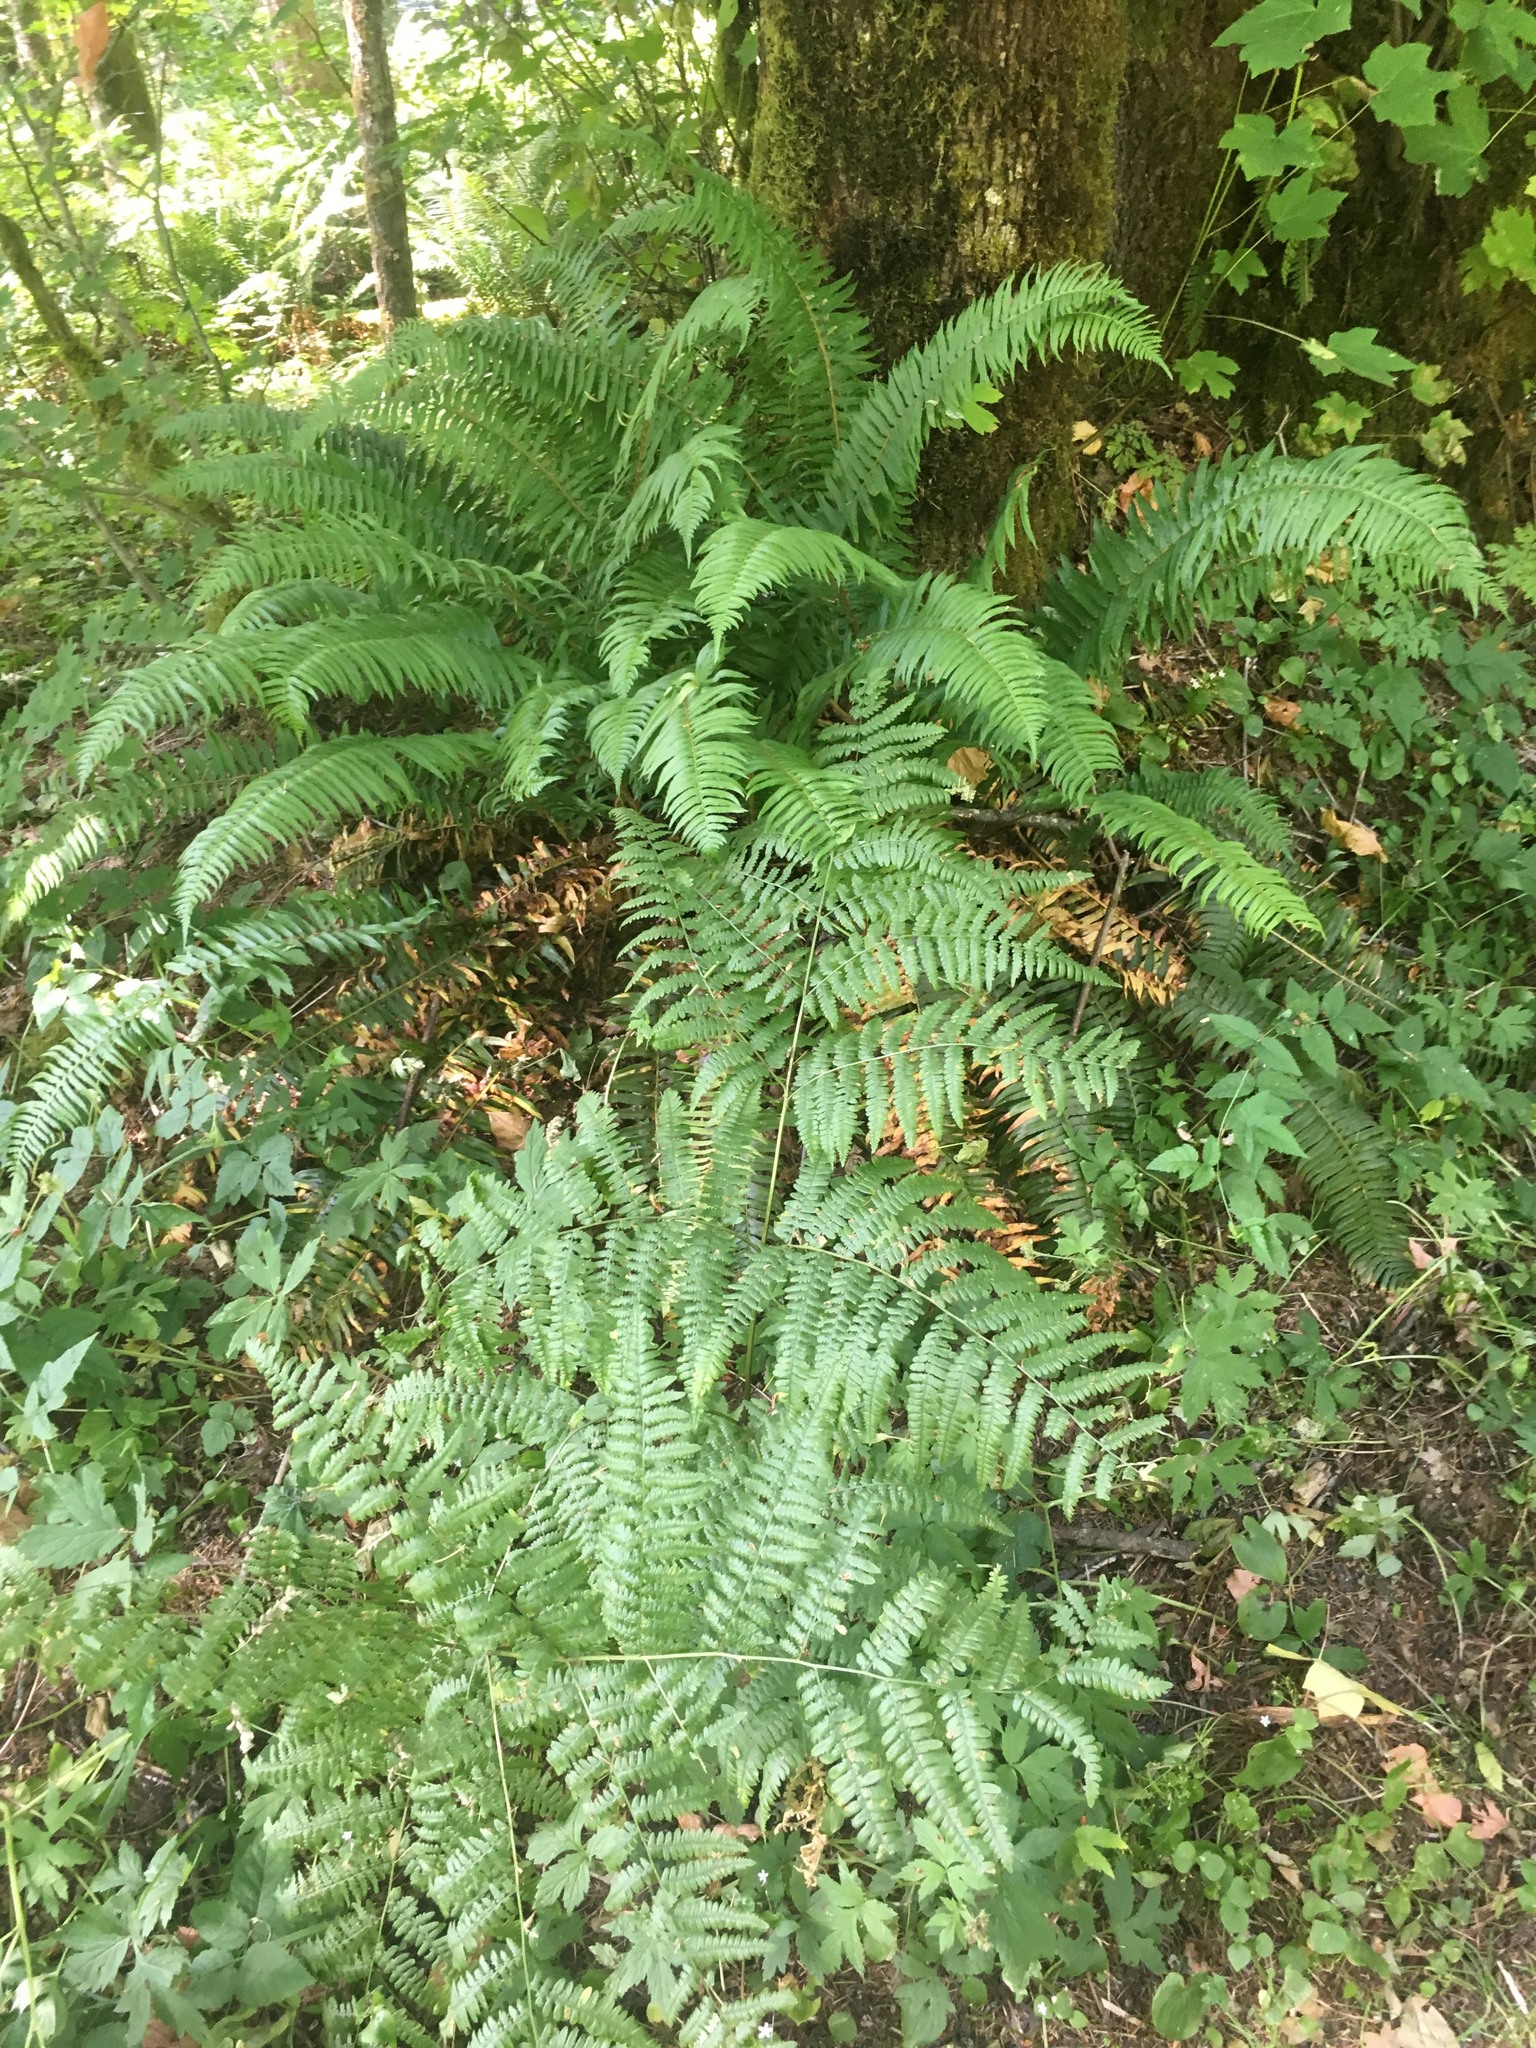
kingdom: Plantae
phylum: Tracheophyta
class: Polypodiopsida
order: Polypodiales
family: Dennstaedtiaceae
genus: Pteridium
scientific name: Pteridium aquilinum
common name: Bracken
